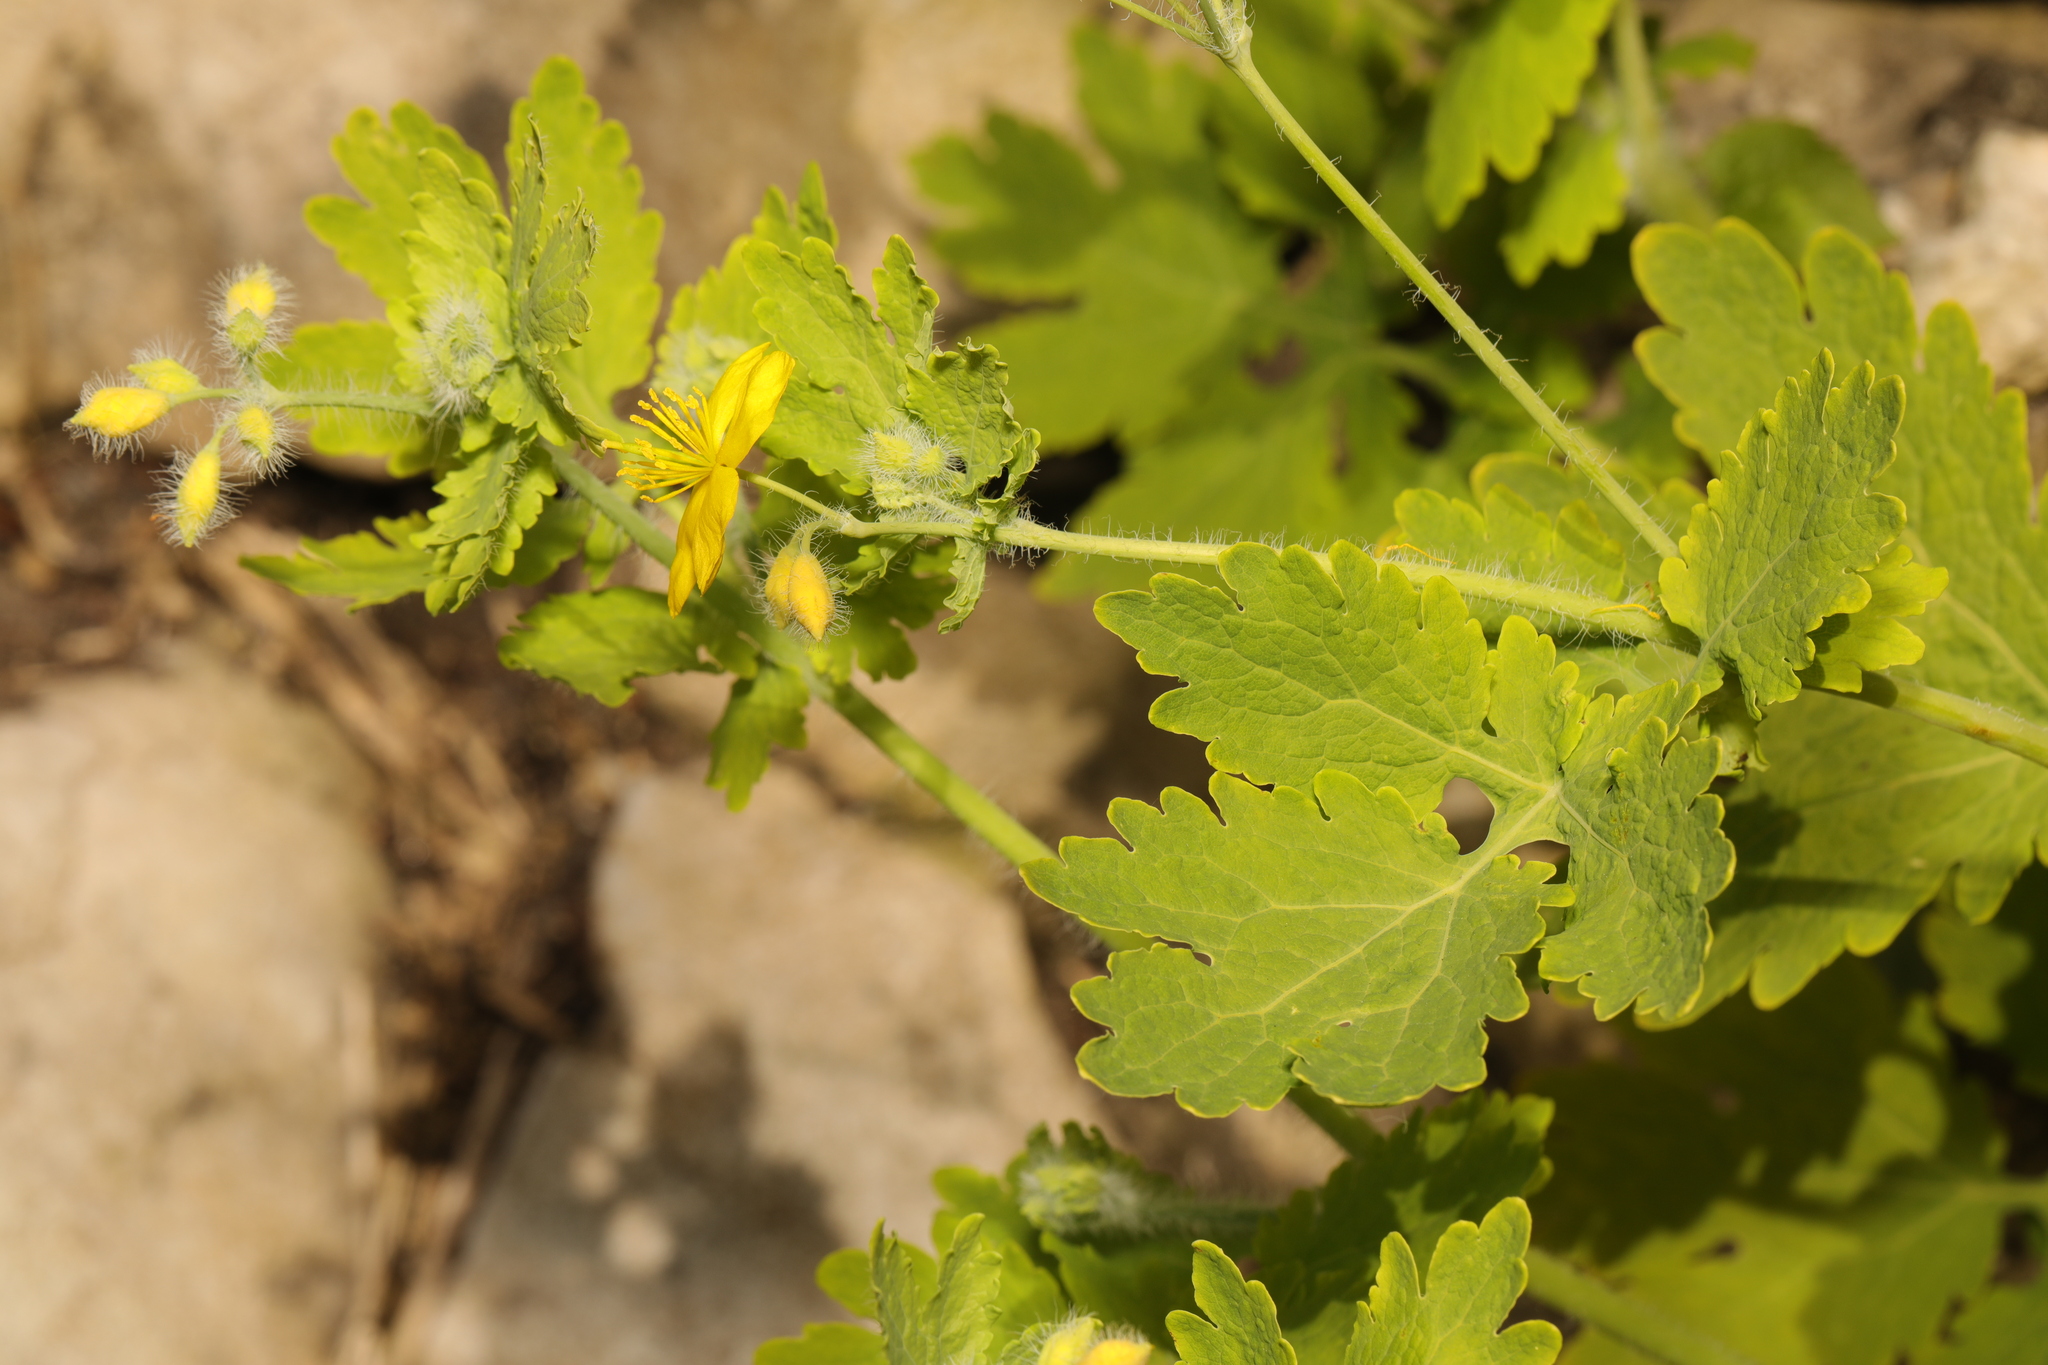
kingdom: Plantae
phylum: Tracheophyta
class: Magnoliopsida
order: Ranunculales
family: Papaveraceae
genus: Chelidonium
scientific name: Chelidonium majus
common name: Greater celandine
